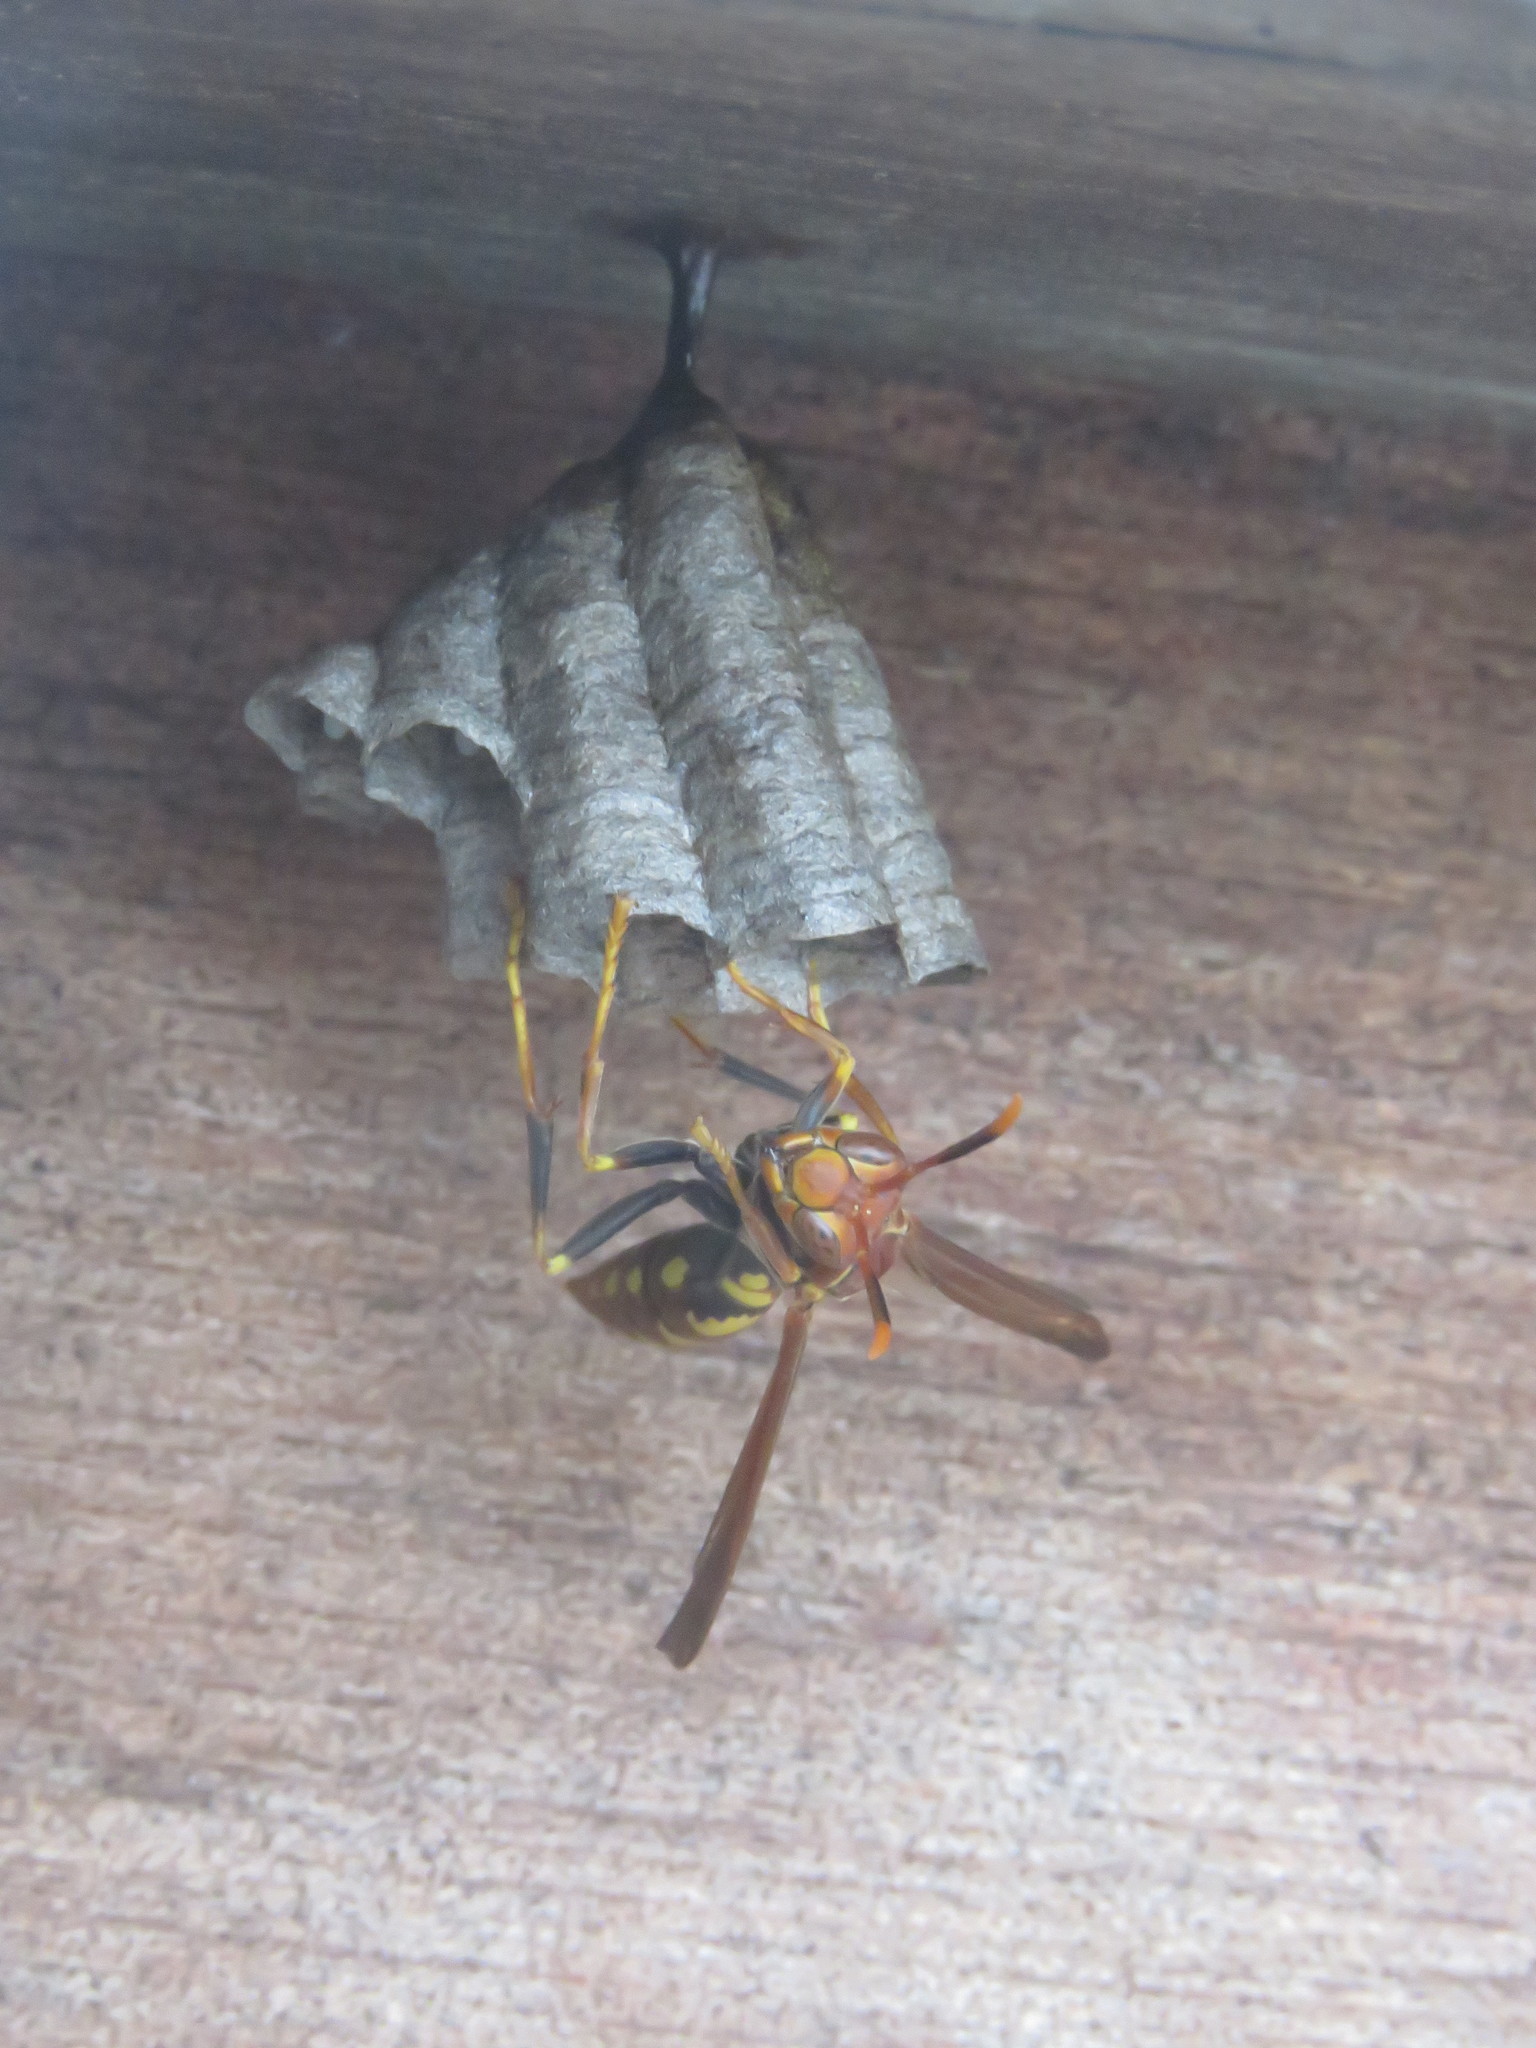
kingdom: Animalia
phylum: Arthropoda
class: Insecta
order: Hymenoptera
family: Eumenidae
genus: Polistes
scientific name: Polistes versicolor
